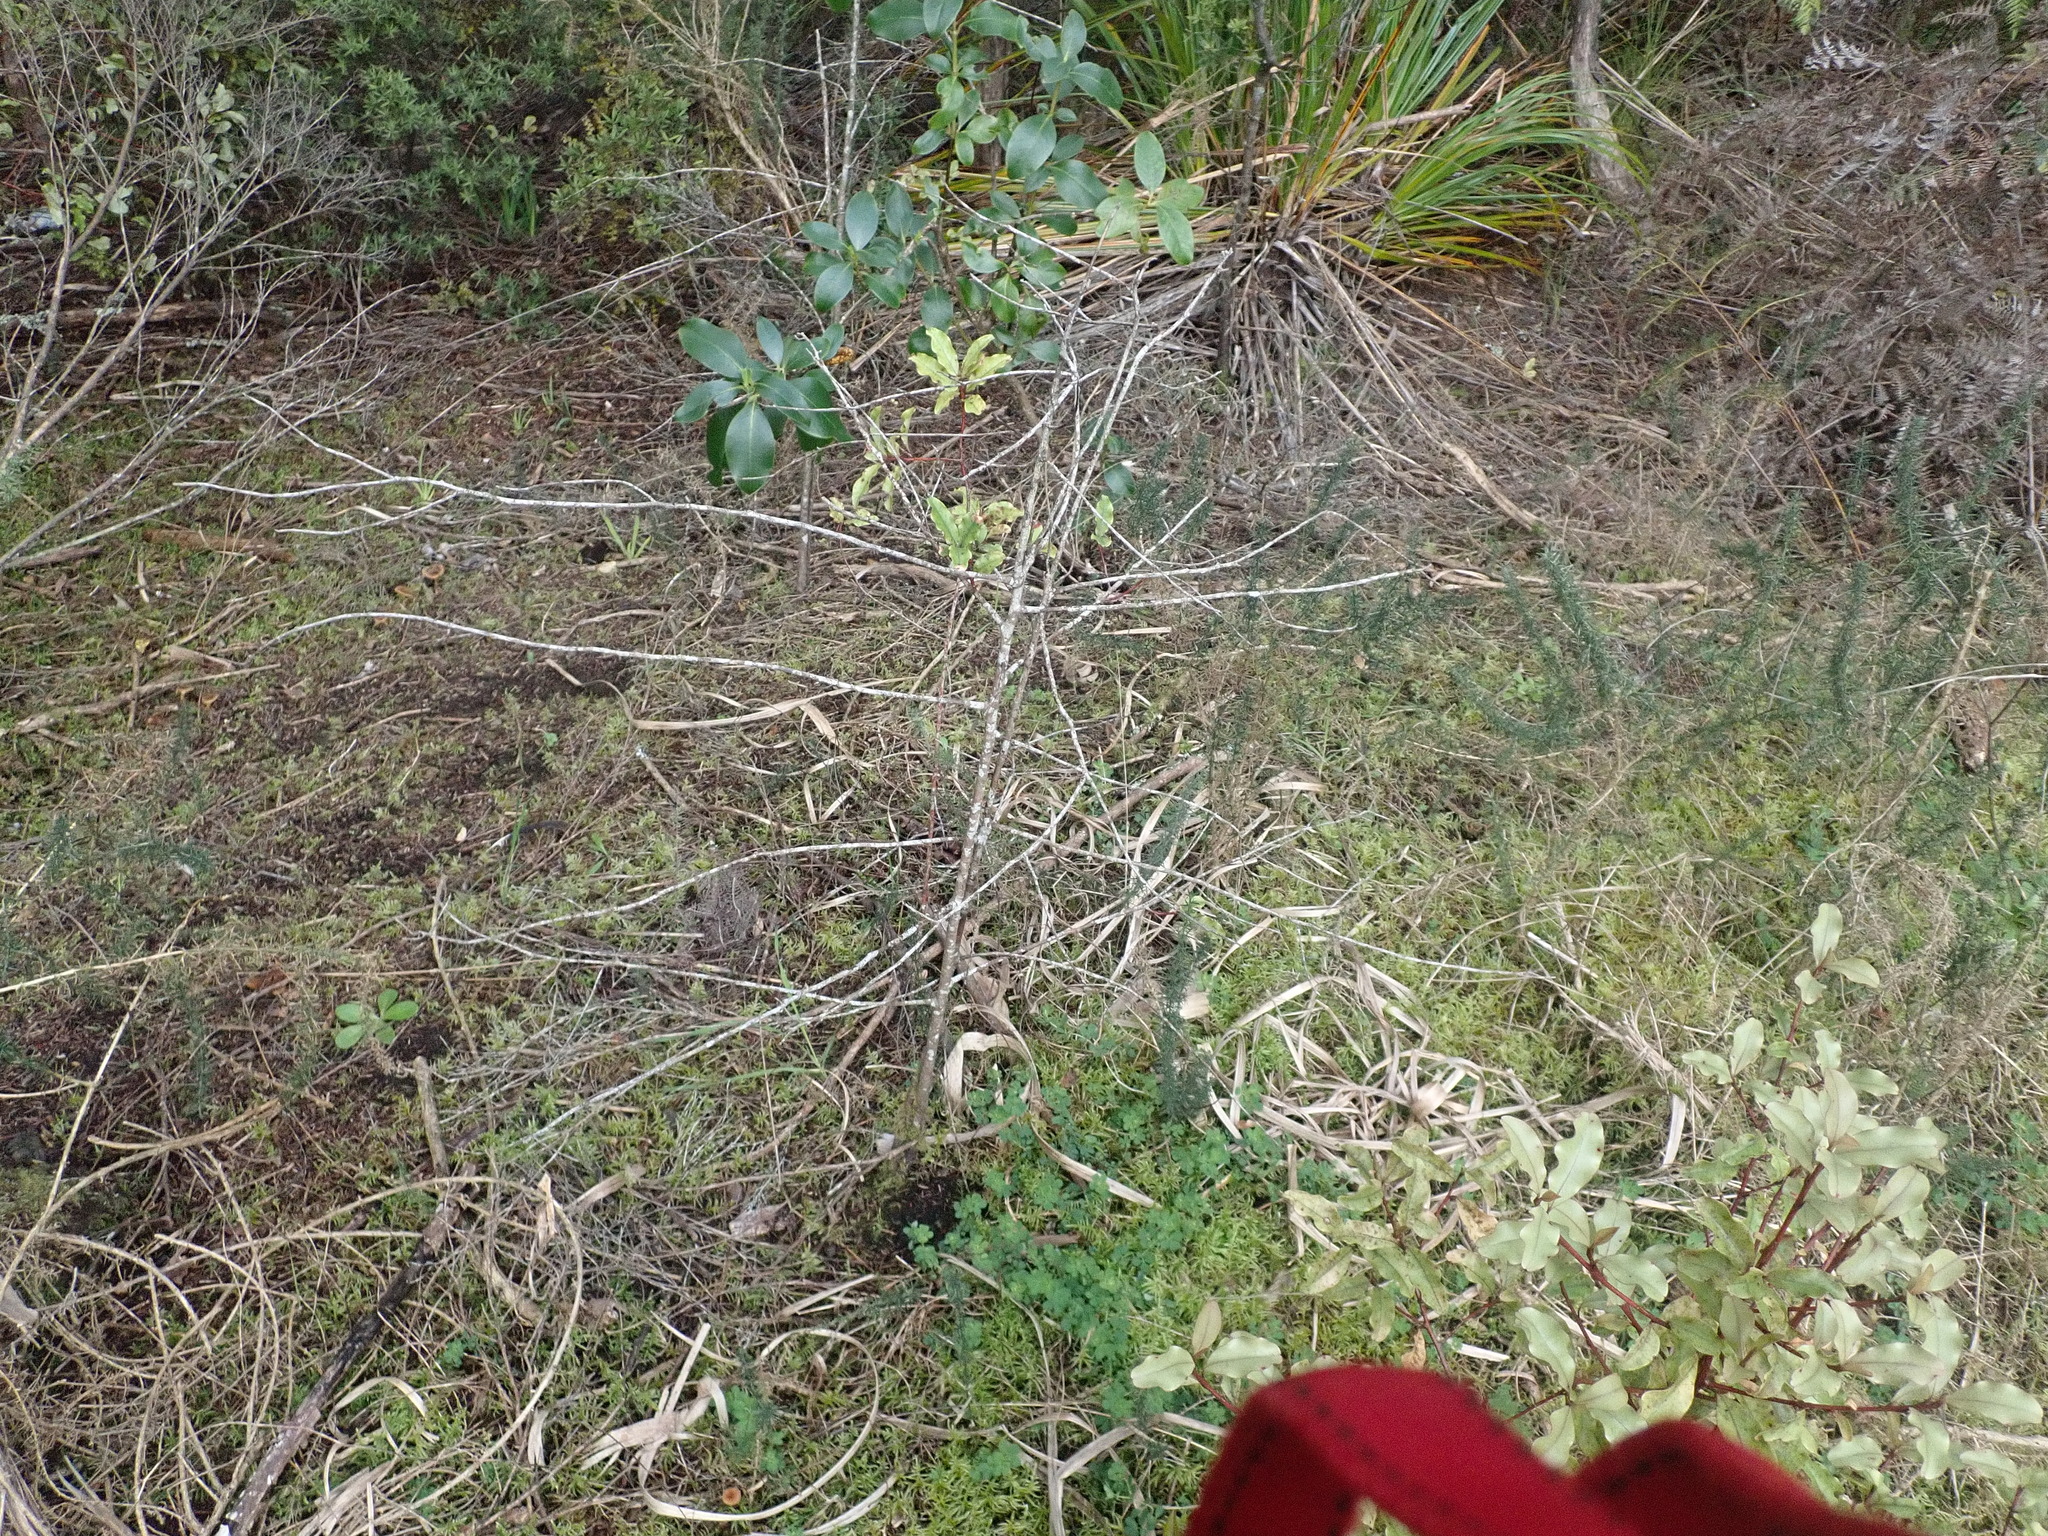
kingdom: Plantae
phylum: Tracheophyta
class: Magnoliopsida
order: Ericales
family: Primulaceae
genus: Myrsine
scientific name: Myrsine australis
